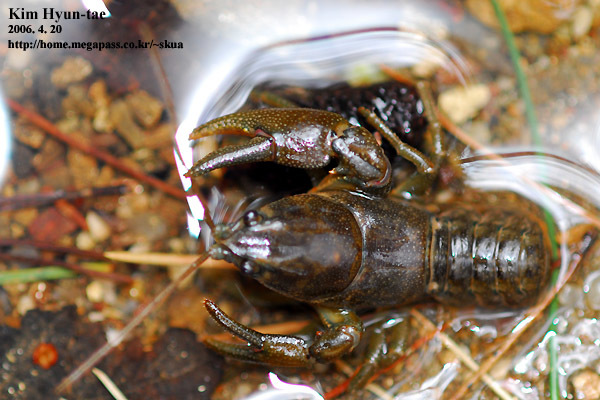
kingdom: Animalia
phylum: Arthropoda
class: Malacostraca
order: Decapoda
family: Cambaroididae
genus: Cambaroides
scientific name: Cambaroides similis
